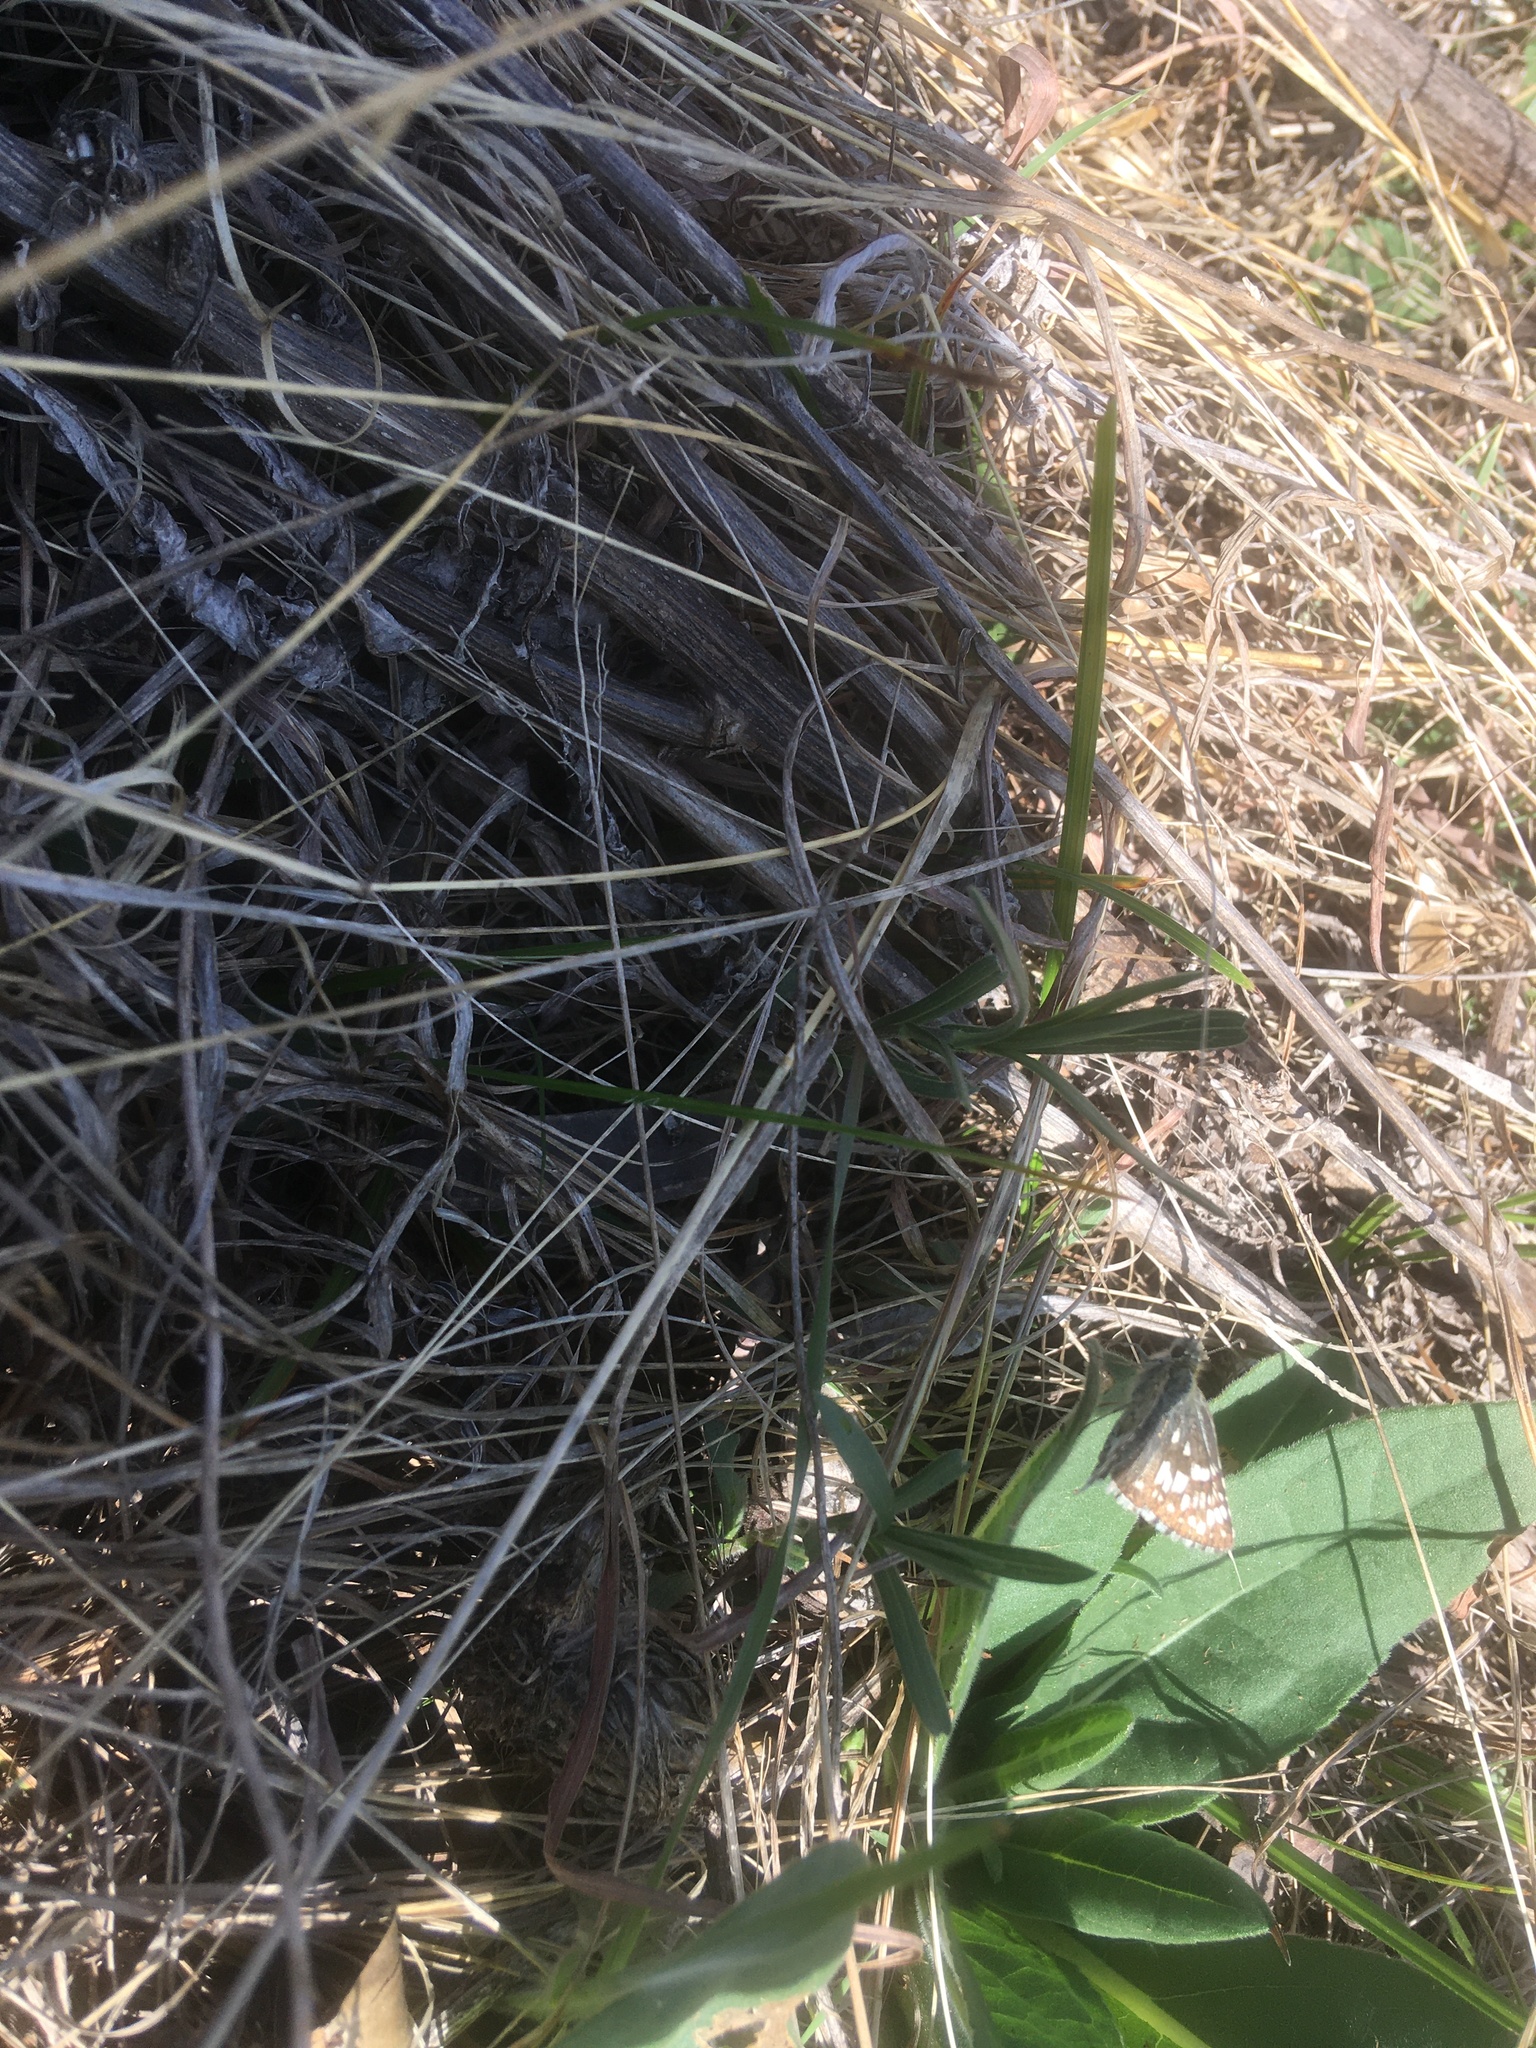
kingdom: Animalia
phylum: Arthropoda
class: Insecta
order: Lepidoptera
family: Hesperiidae
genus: Burnsius
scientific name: Burnsius communis
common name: Common checkered-skipper
